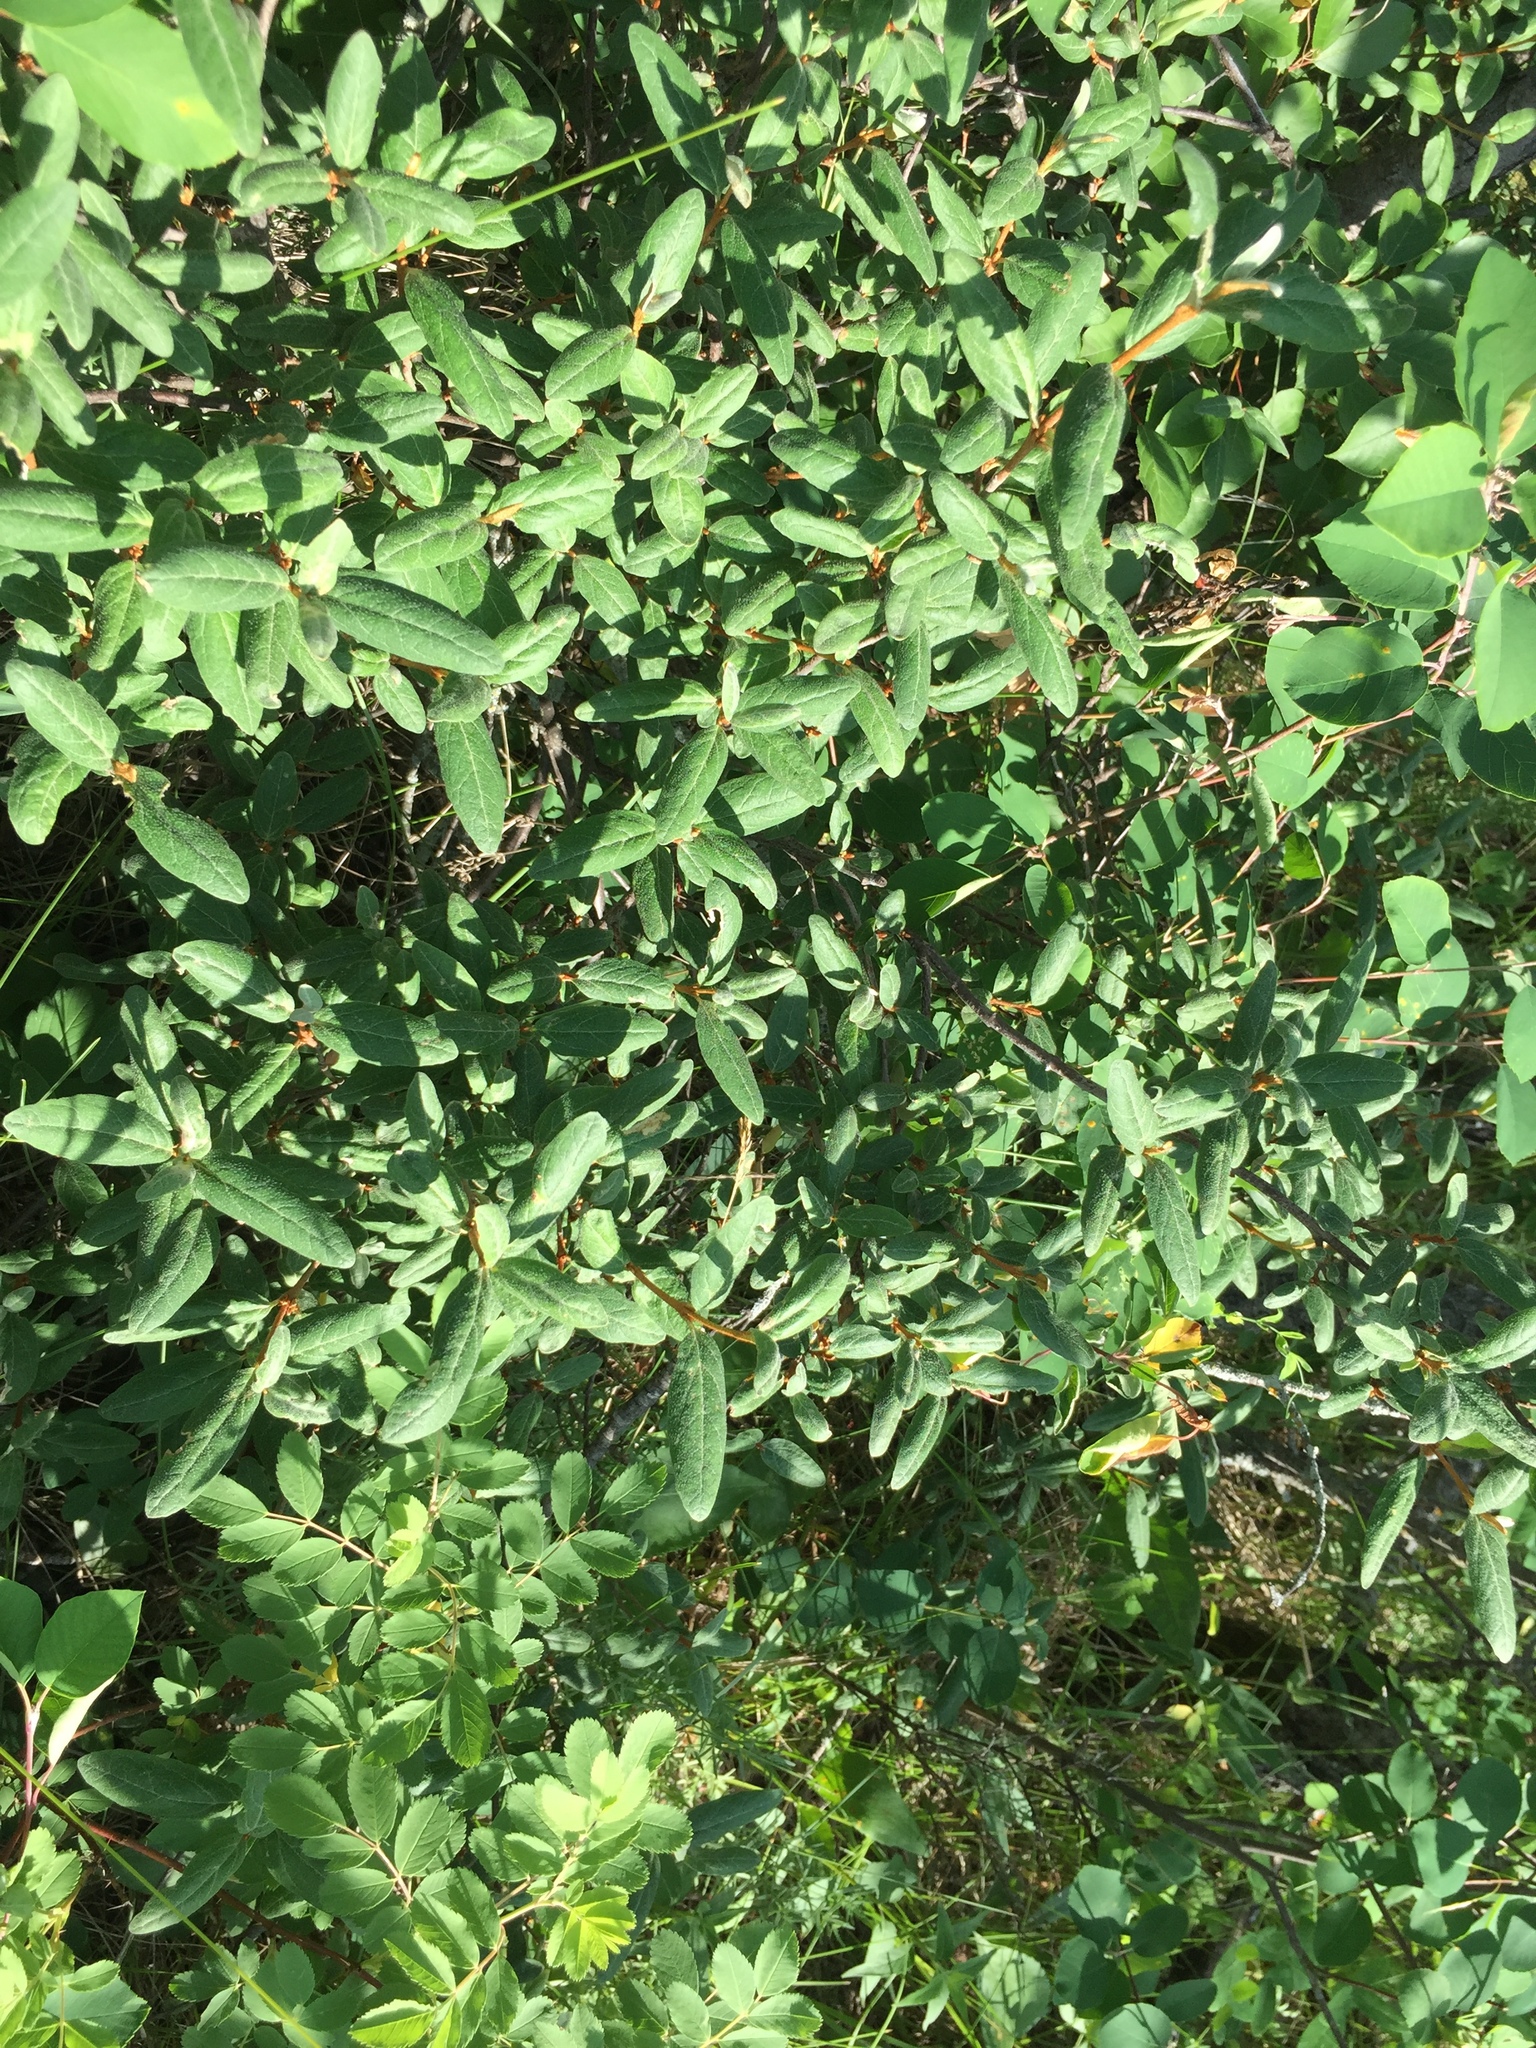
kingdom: Plantae
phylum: Tracheophyta
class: Magnoliopsida
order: Rosales
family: Elaeagnaceae
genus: Shepherdia
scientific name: Shepherdia canadensis
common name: Soapberry
